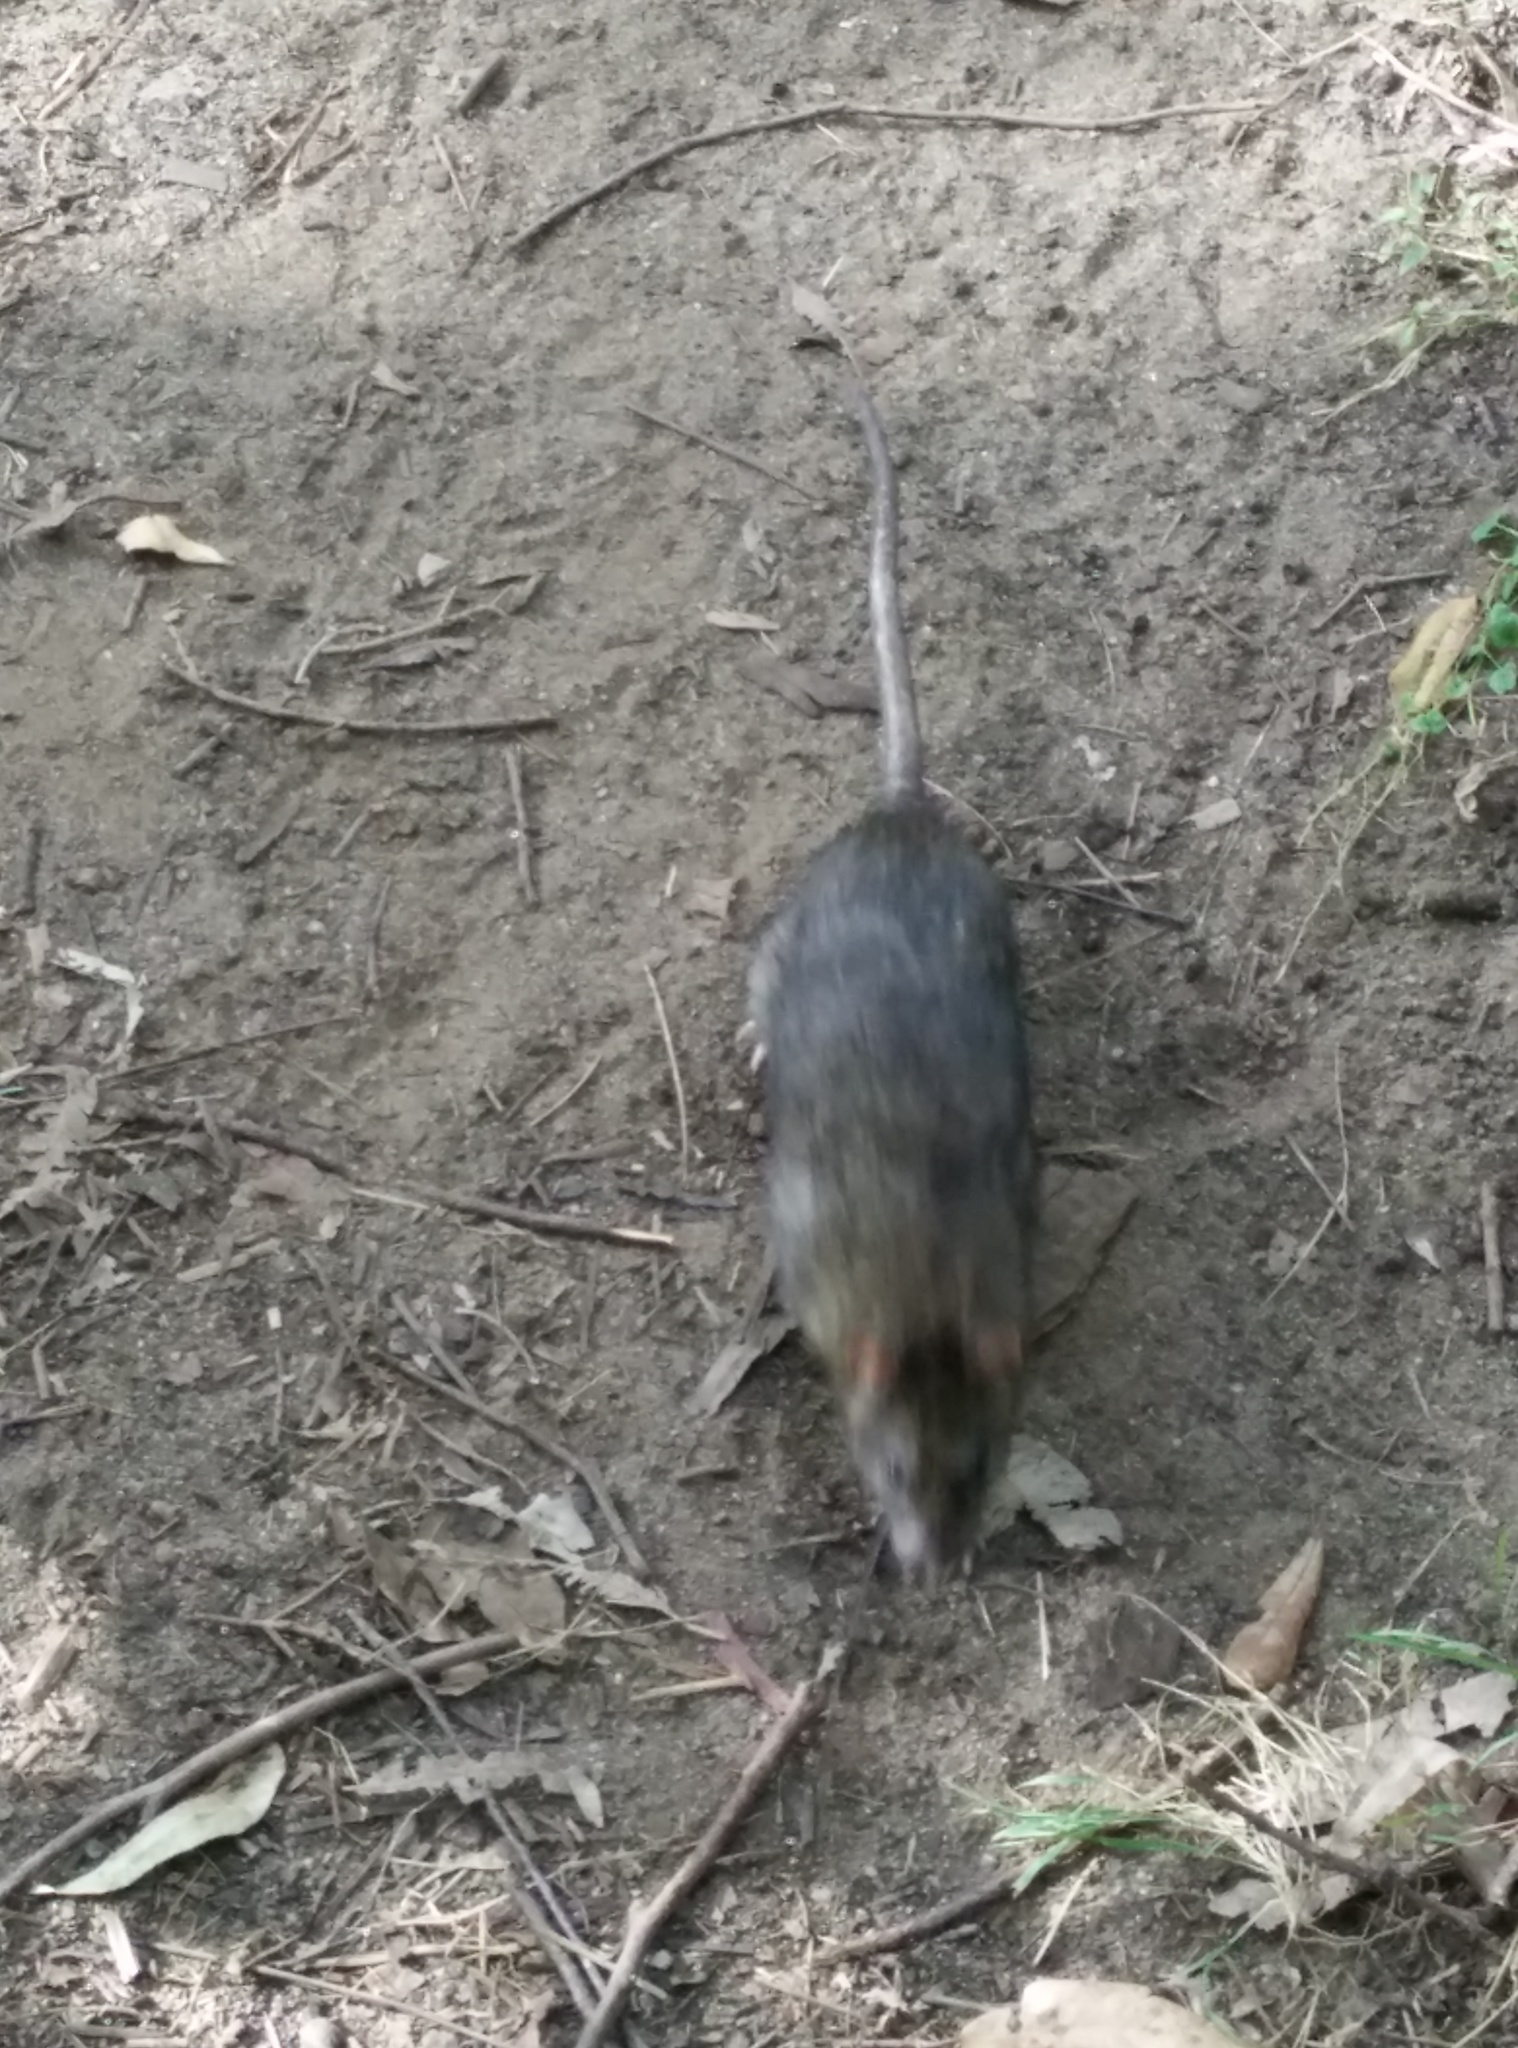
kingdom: Animalia
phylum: Chordata
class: Mammalia
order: Rodentia
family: Muridae
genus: Rattus
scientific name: Rattus norvegicus
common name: Brown rat
